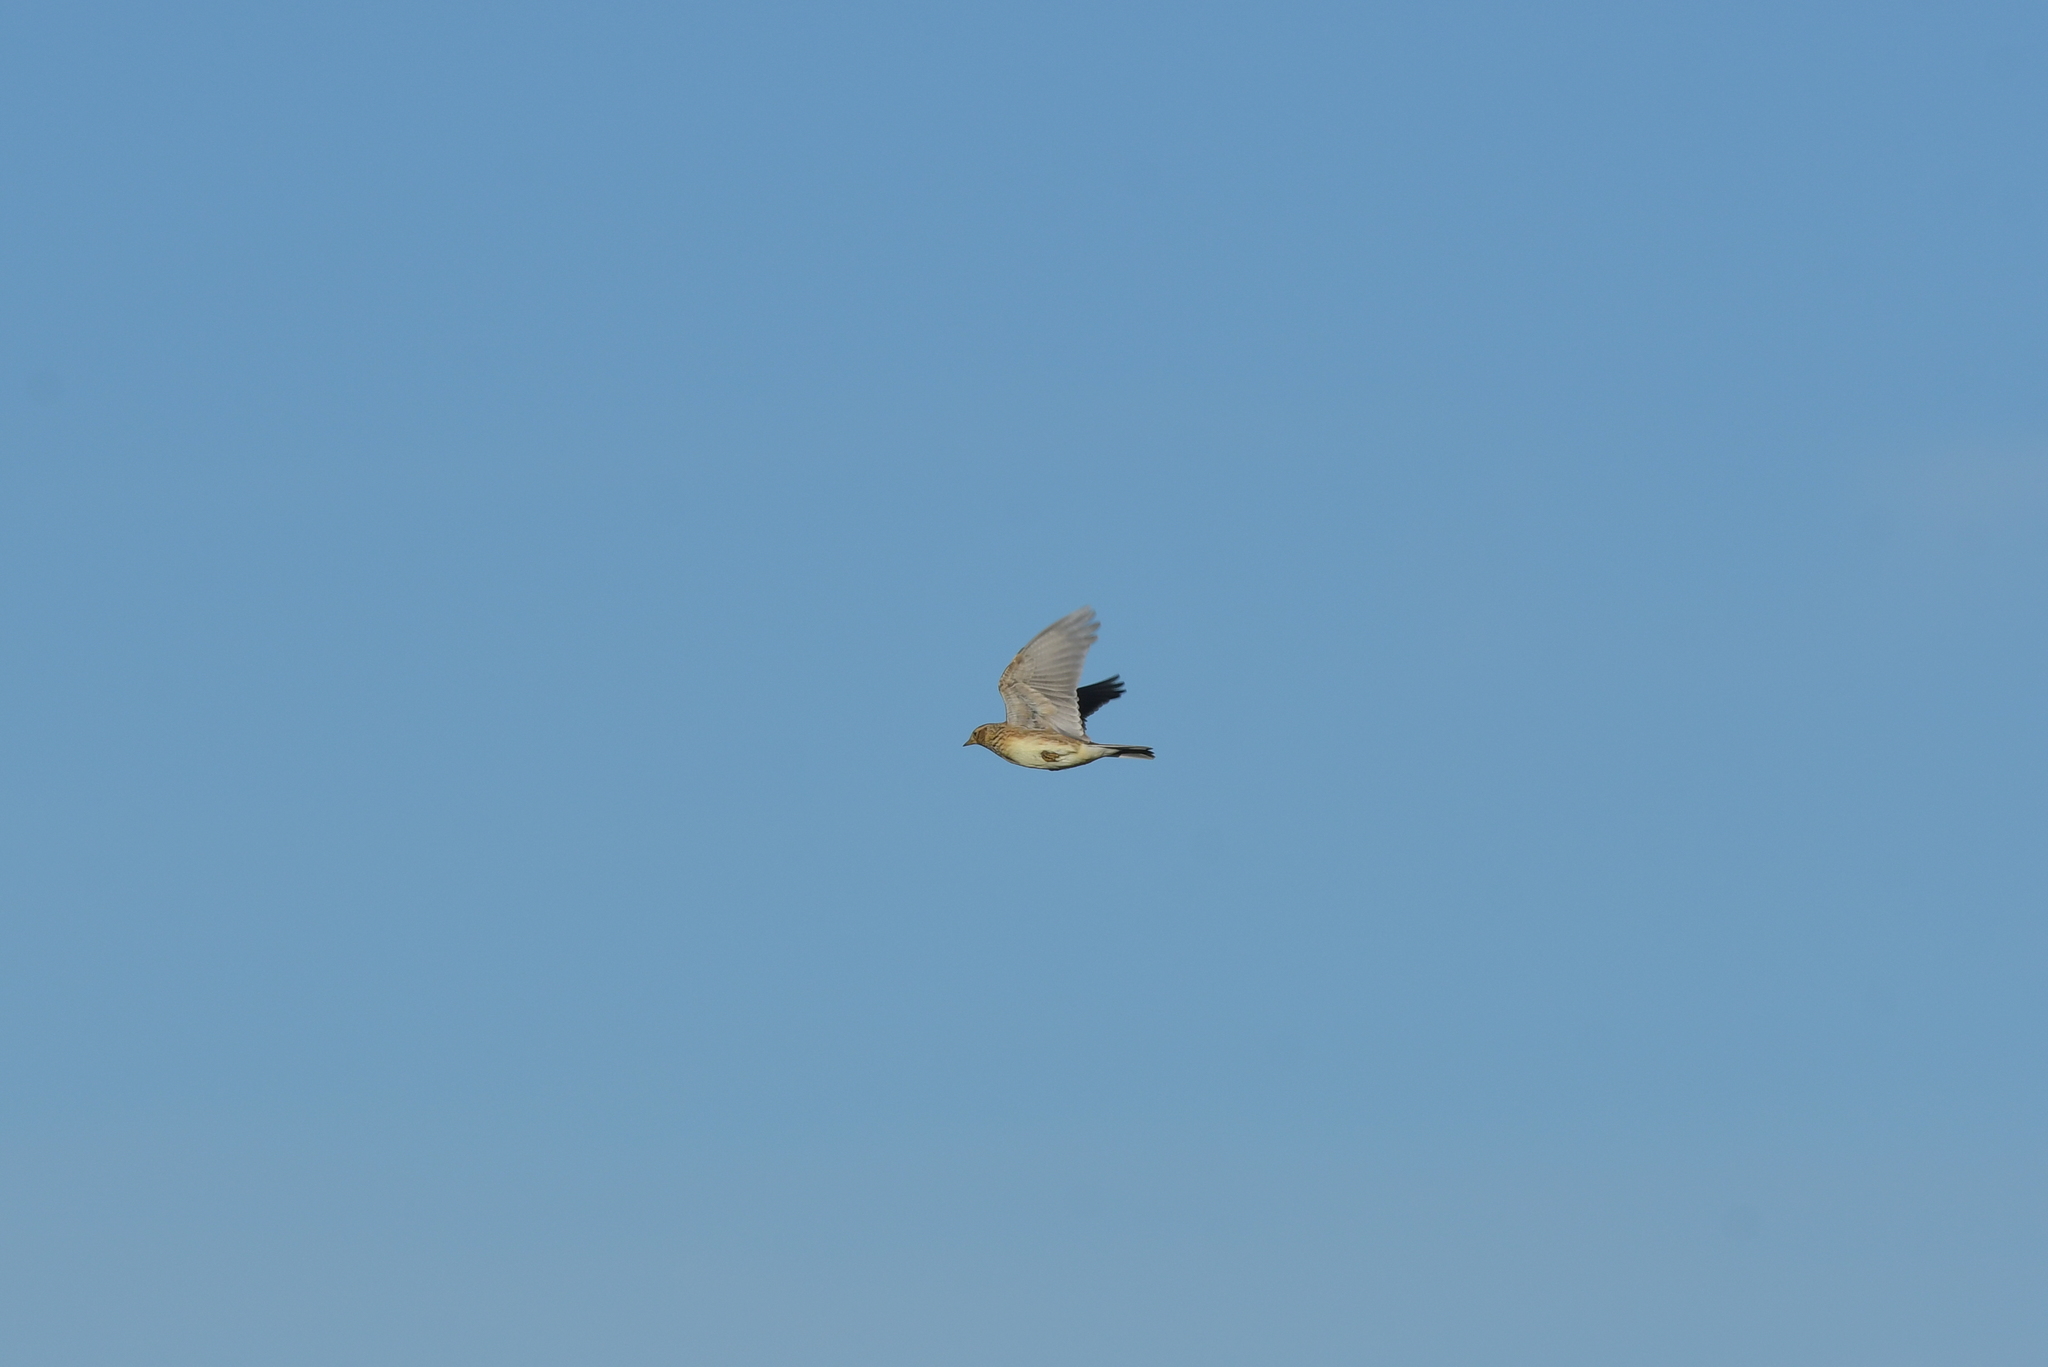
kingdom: Animalia
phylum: Chordata
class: Aves
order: Passeriformes
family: Alaudidae
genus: Alauda
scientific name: Alauda arvensis
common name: Eurasian skylark
